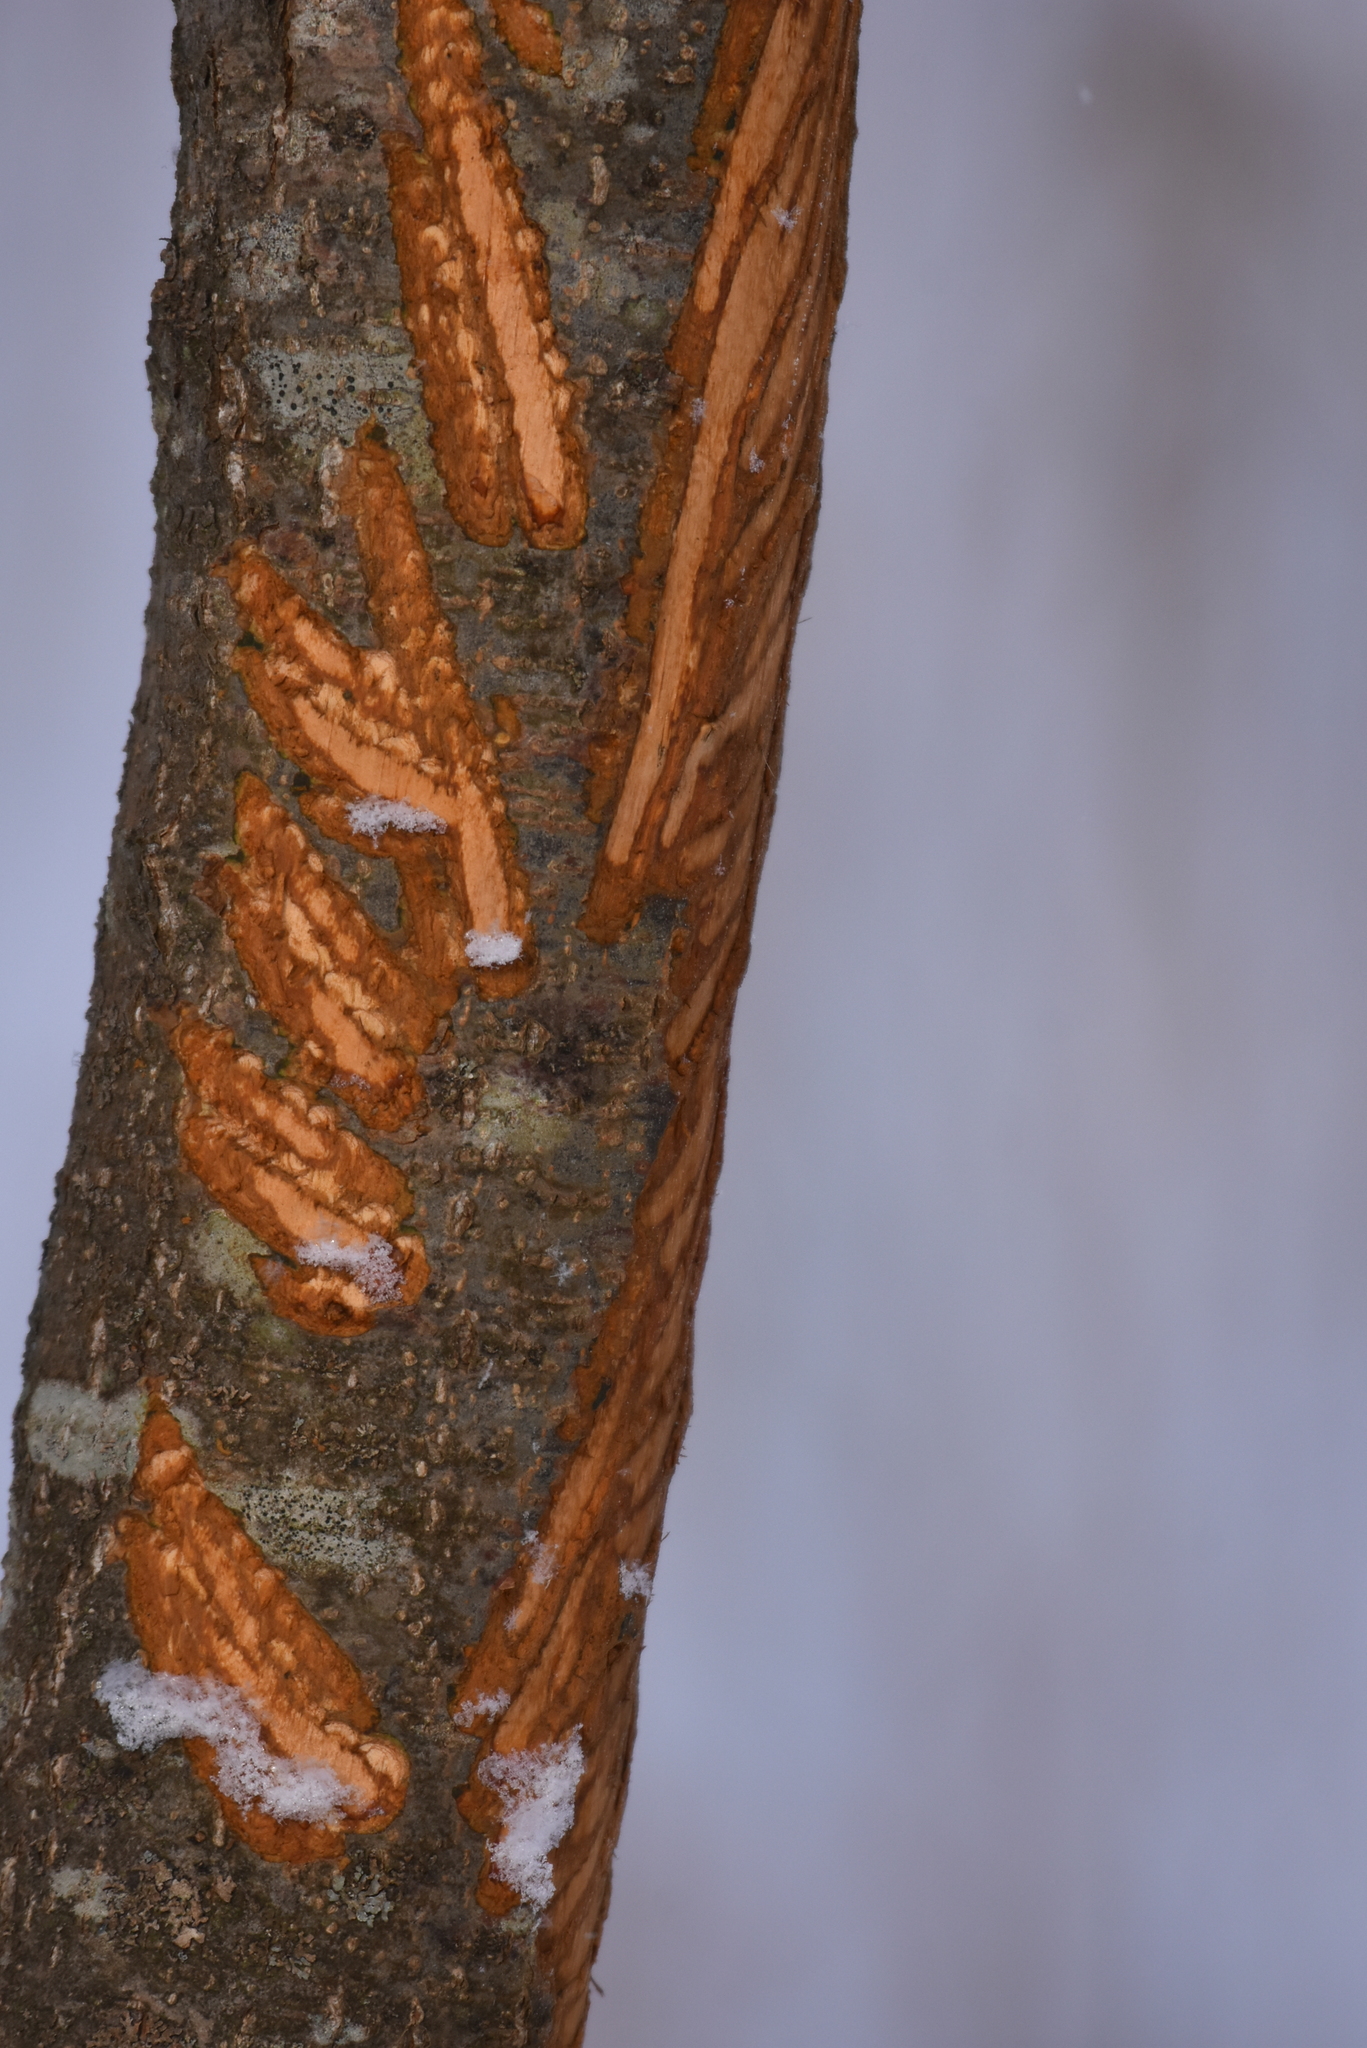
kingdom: Animalia
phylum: Chordata
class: Mammalia
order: Artiodactyla
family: Cervidae
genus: Alces
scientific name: Alces alces
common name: Moose
